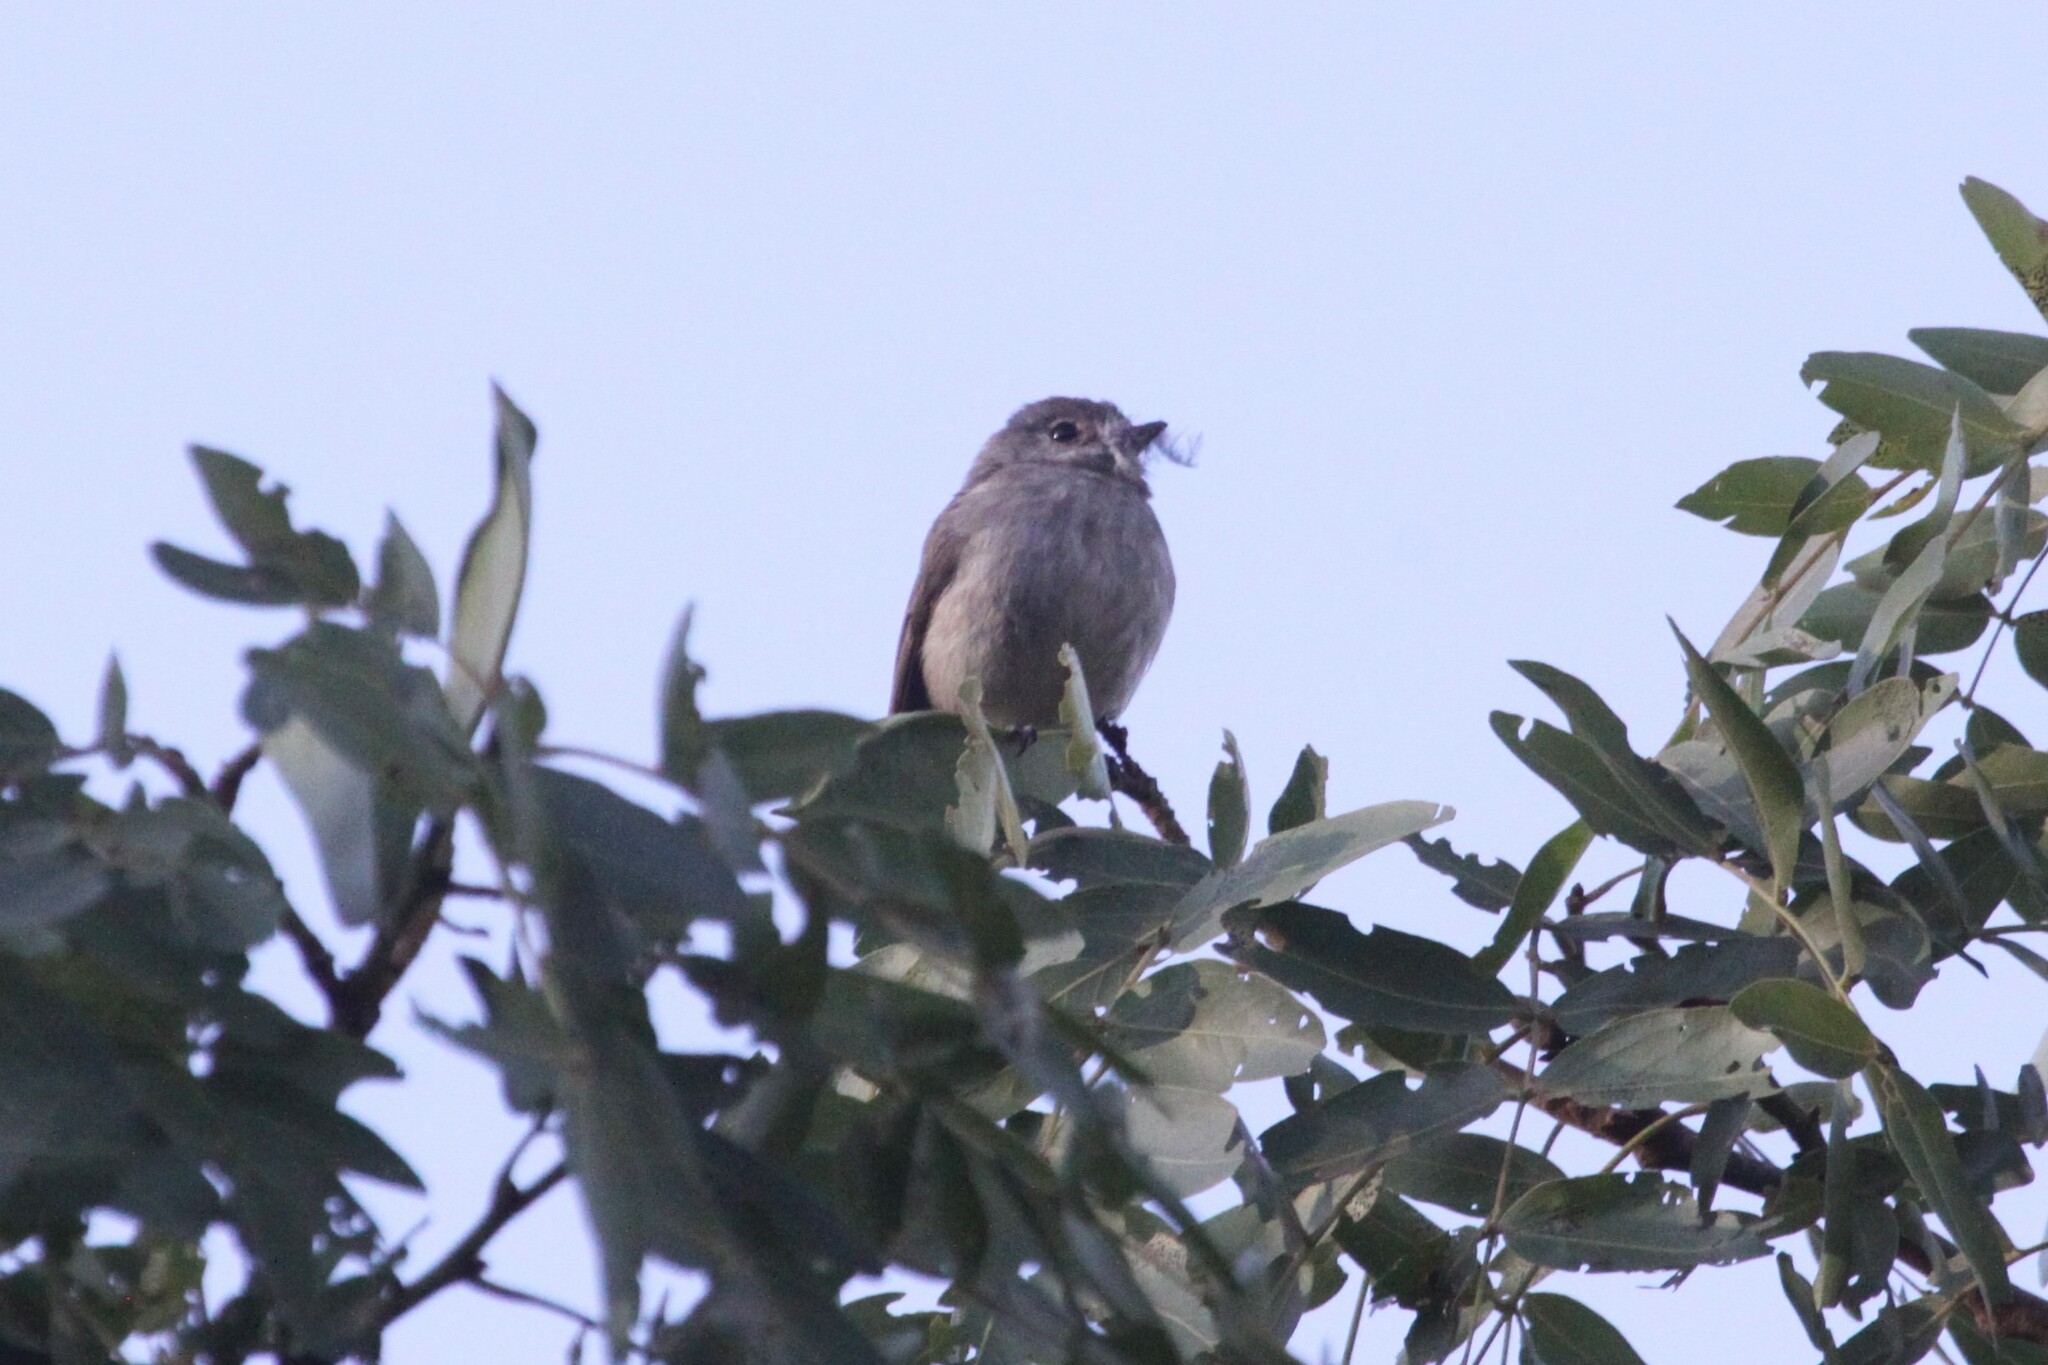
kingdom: Animalia
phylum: Chordata
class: Aves
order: Passeriformes
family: Muscicapidae
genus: Muscicapa
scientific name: Muscicapa adusta
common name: African dusky flycatcher
